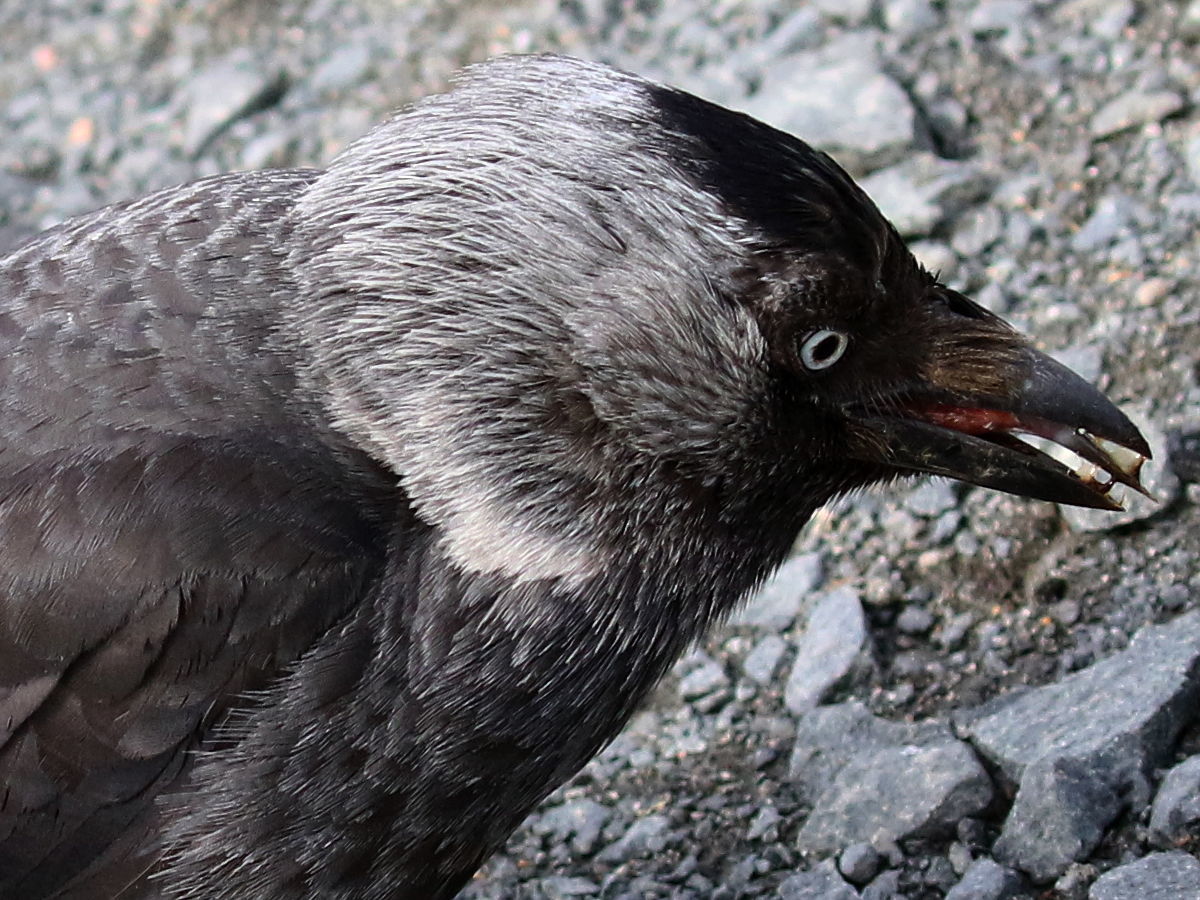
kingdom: Animalia
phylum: Chordata
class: Aves
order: Passeriformes
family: Corvidae
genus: Coloeus
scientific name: Coloeus monedula
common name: Western jackdaw
